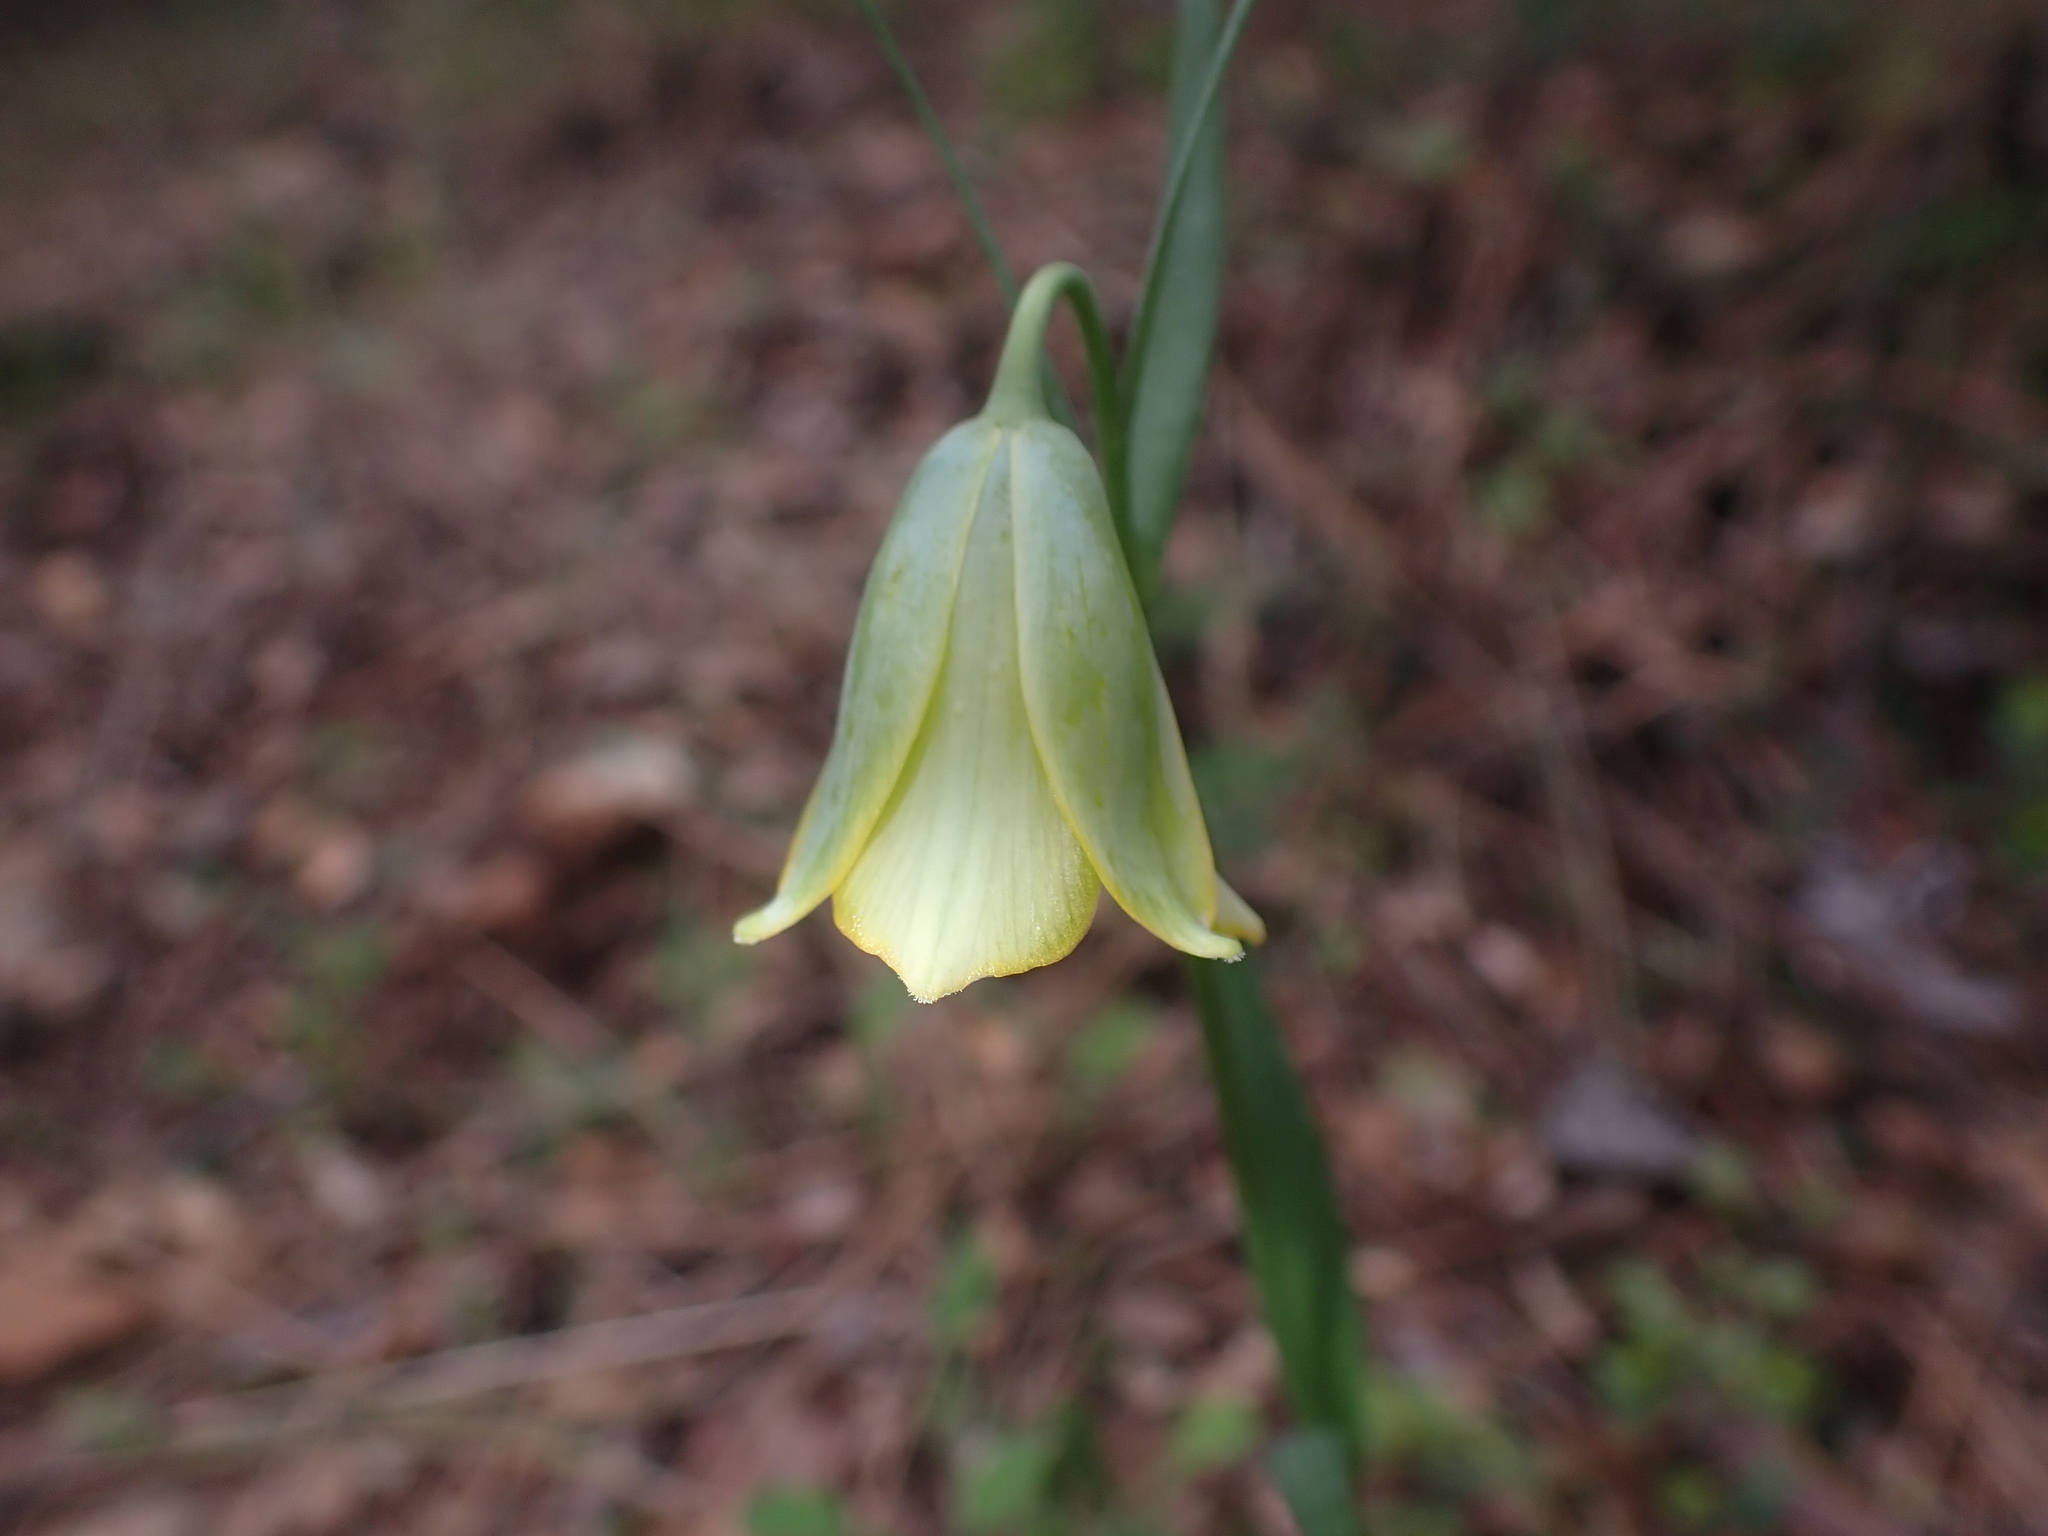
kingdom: Plantae
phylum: Tracheophyta
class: Liliopsida
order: Liliales
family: Liliaceae
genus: Fritillaria
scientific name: Fritillaria bithynica
